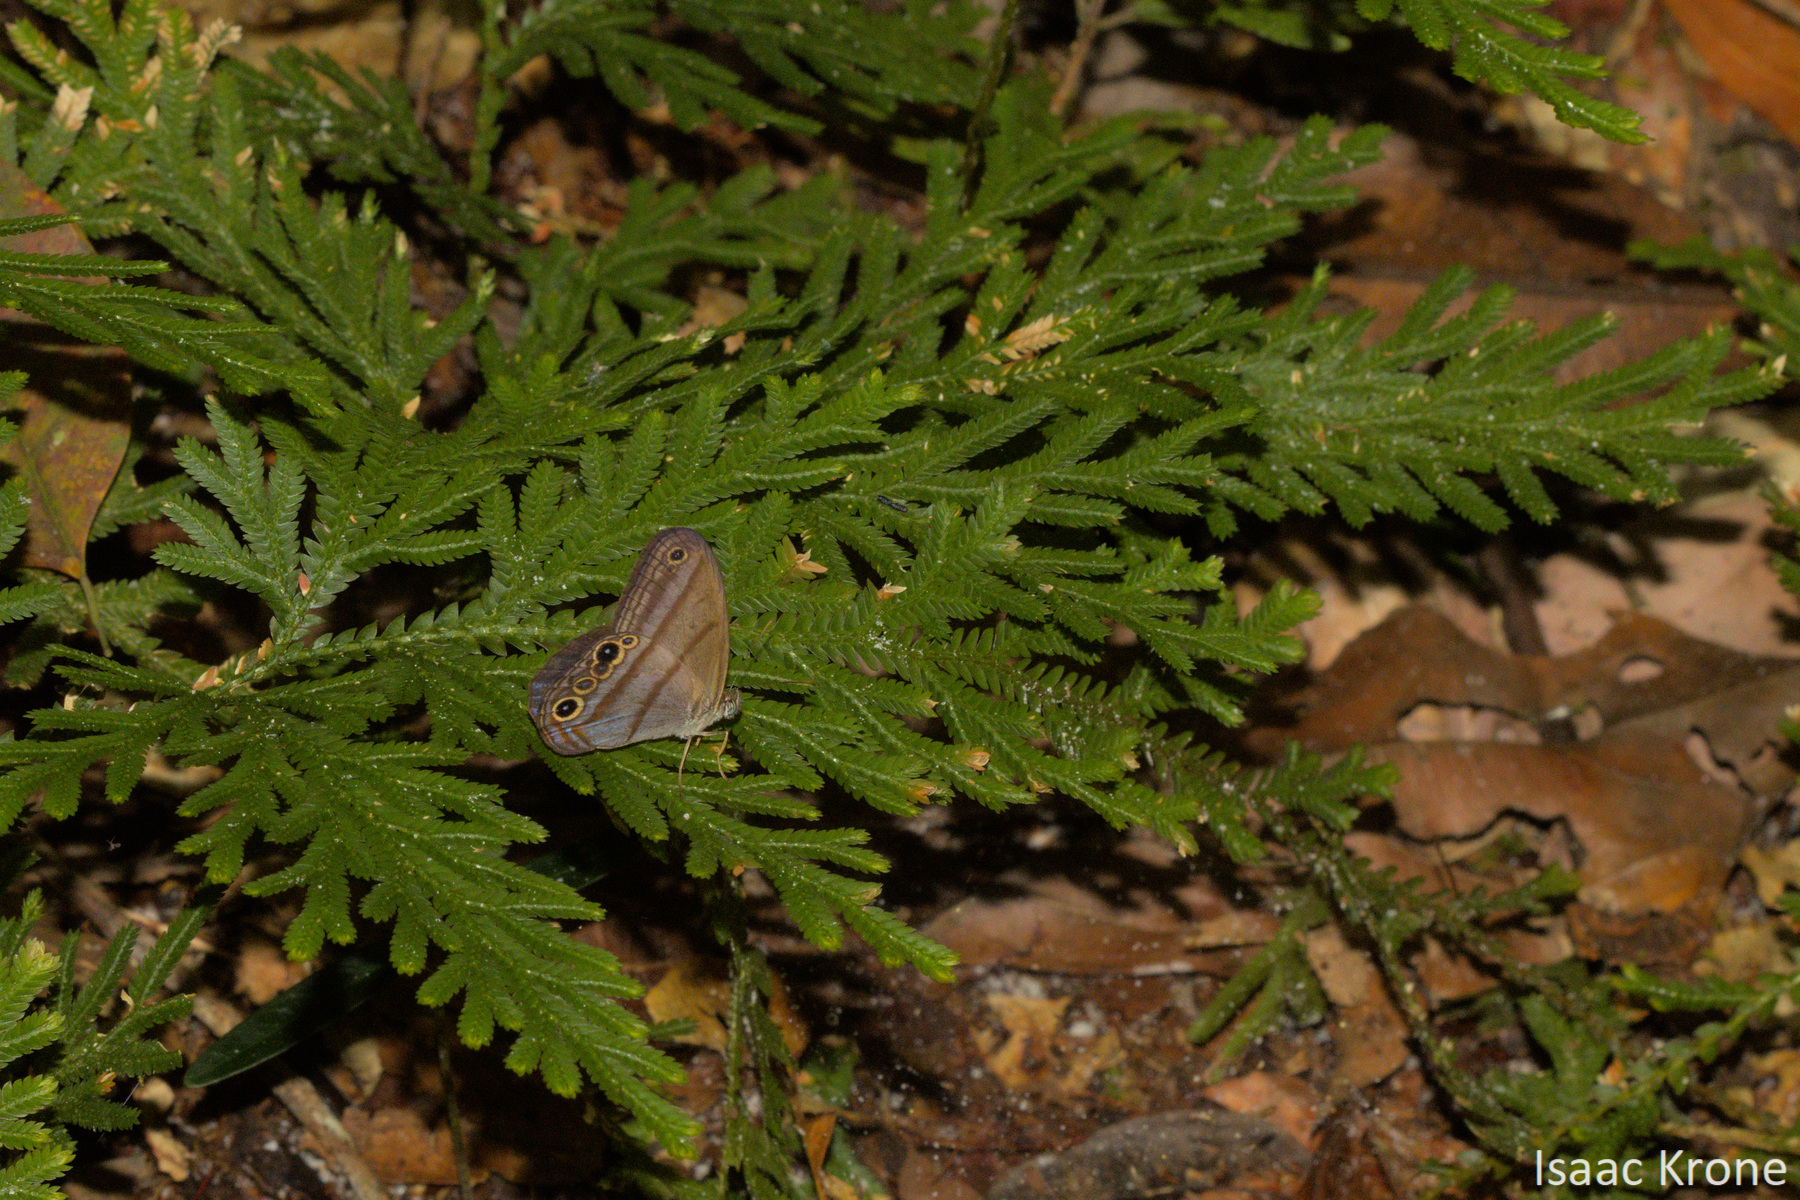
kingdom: Animalia
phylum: Arthropoda
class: Insecta
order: Lepidoptera
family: Nymphalidae
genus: Amiga
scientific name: Amiga arnaca
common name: Blue-topped satyr
